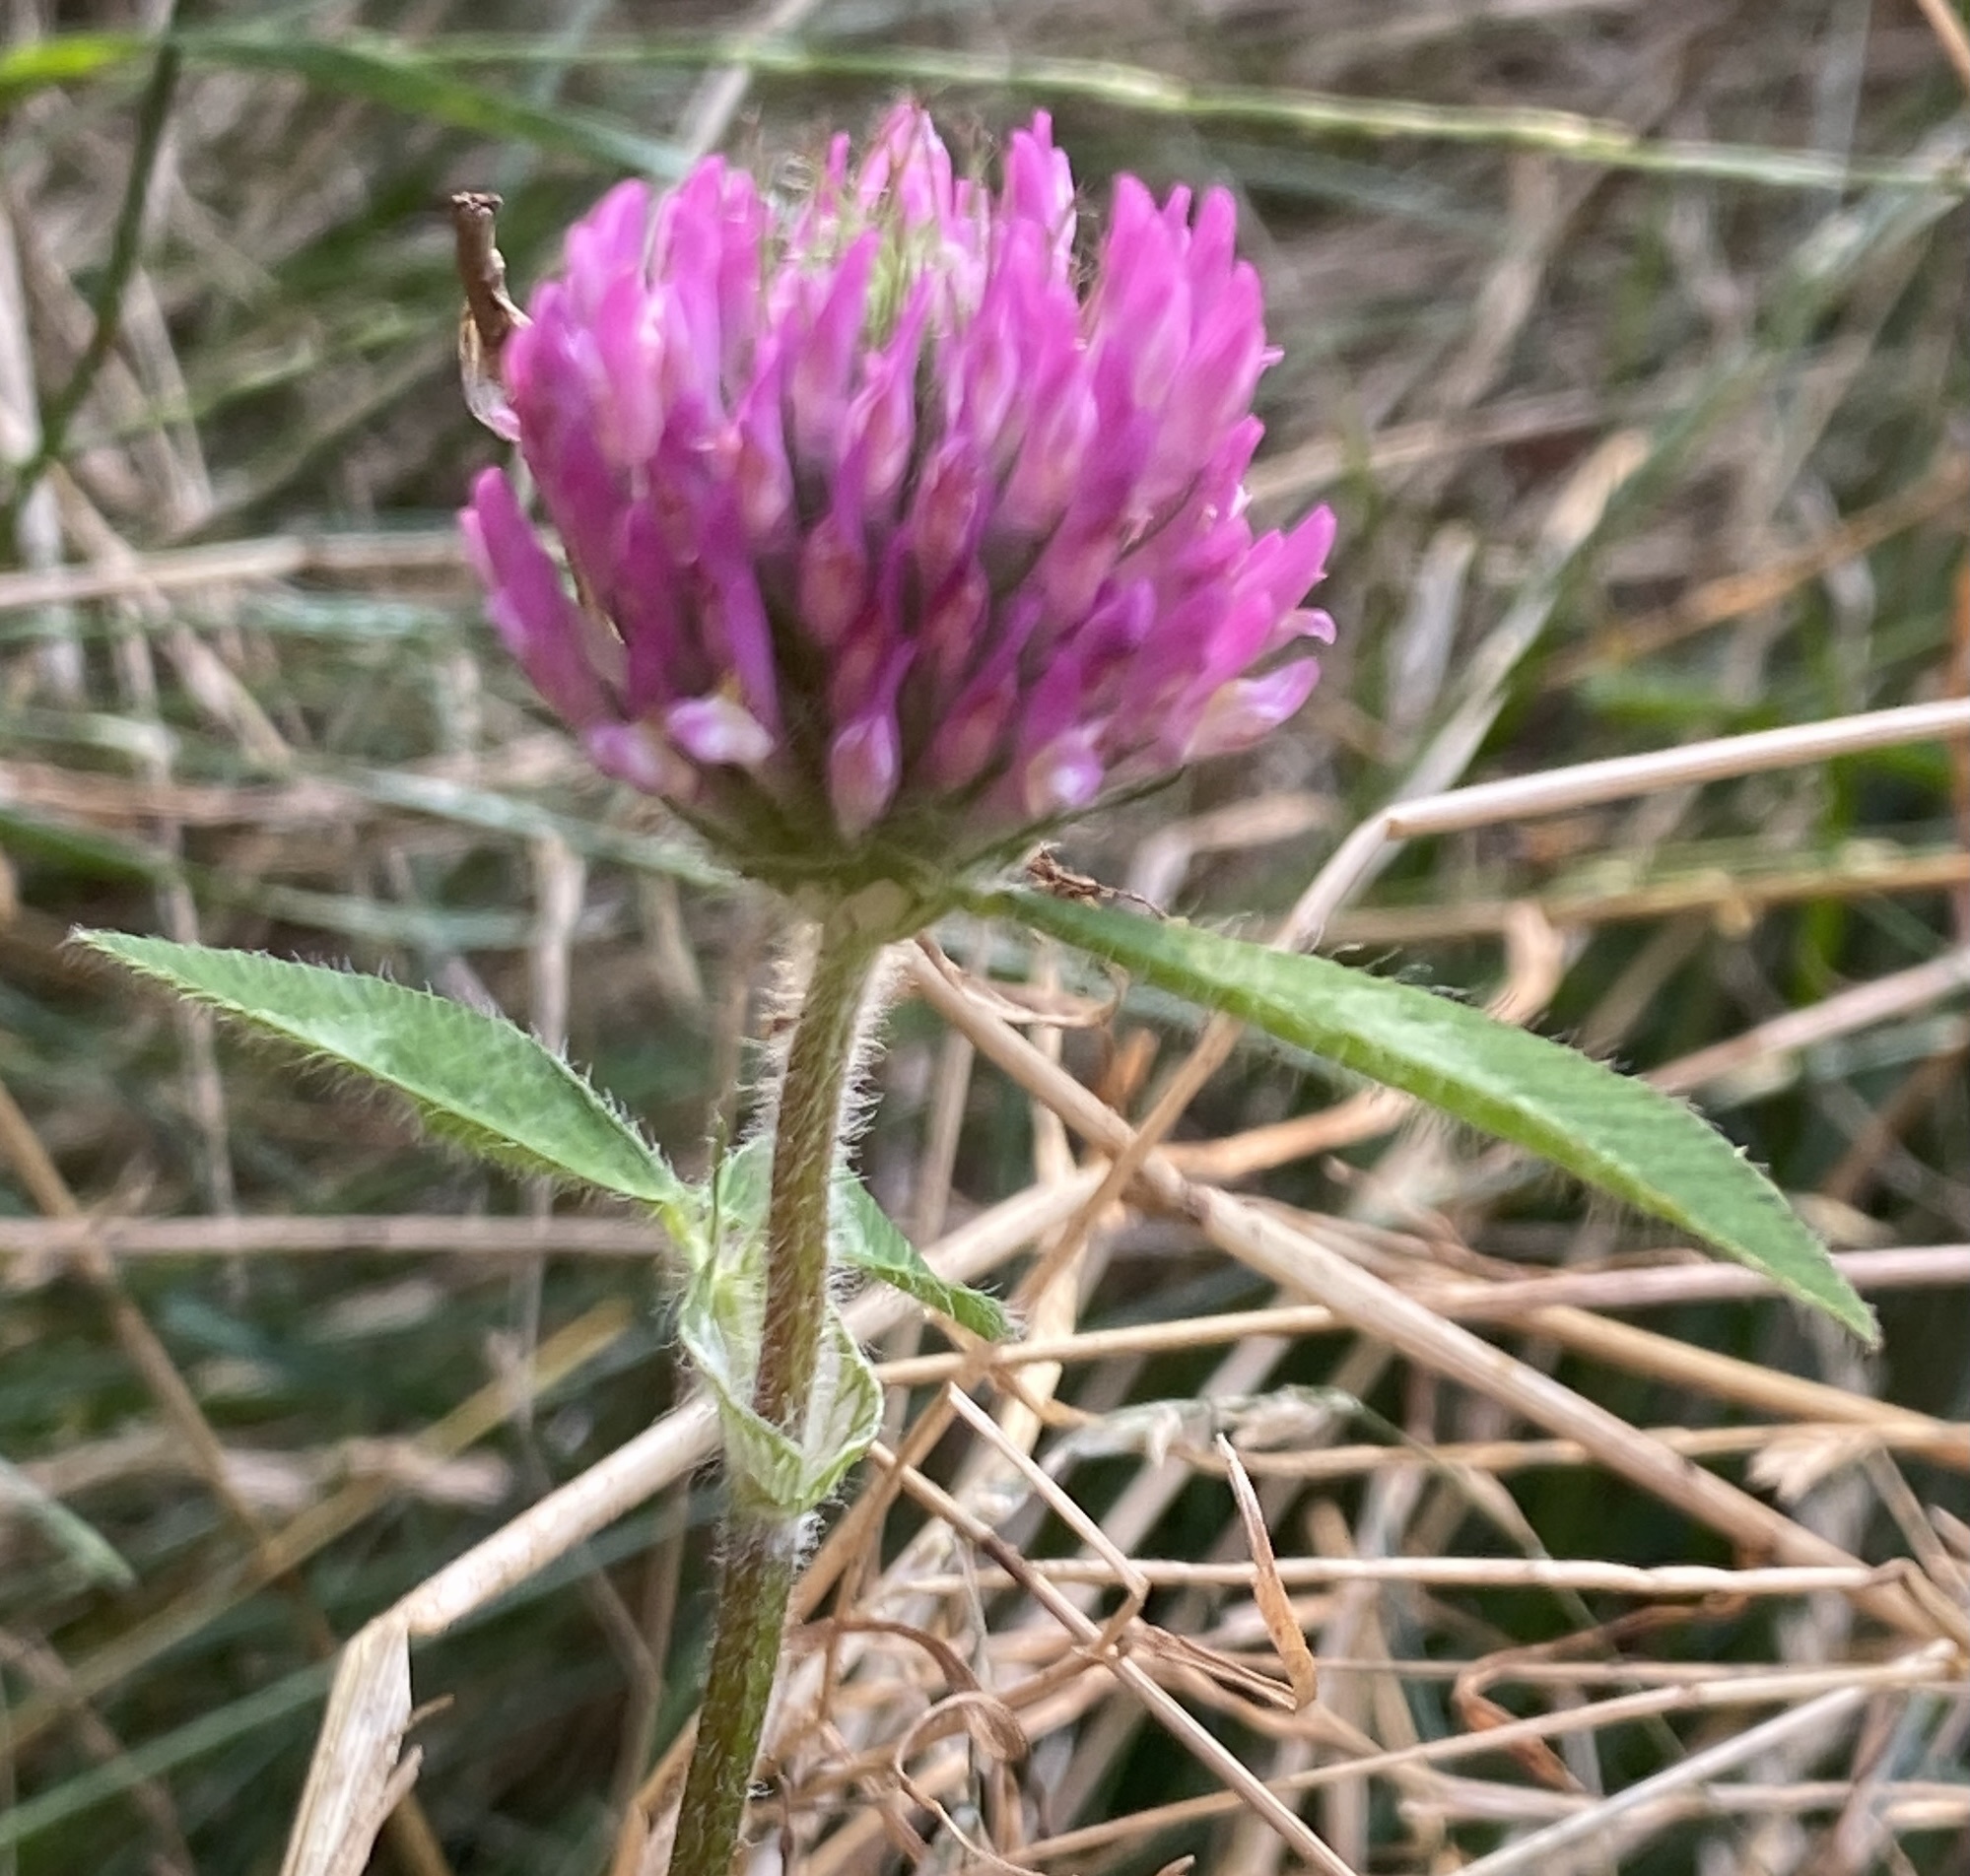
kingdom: Plantae
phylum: Tracheophyta
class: Magnoliopsida
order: Fabales
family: Fabaceae
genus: Trifolium
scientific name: Trifolium pratense
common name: Red clover
